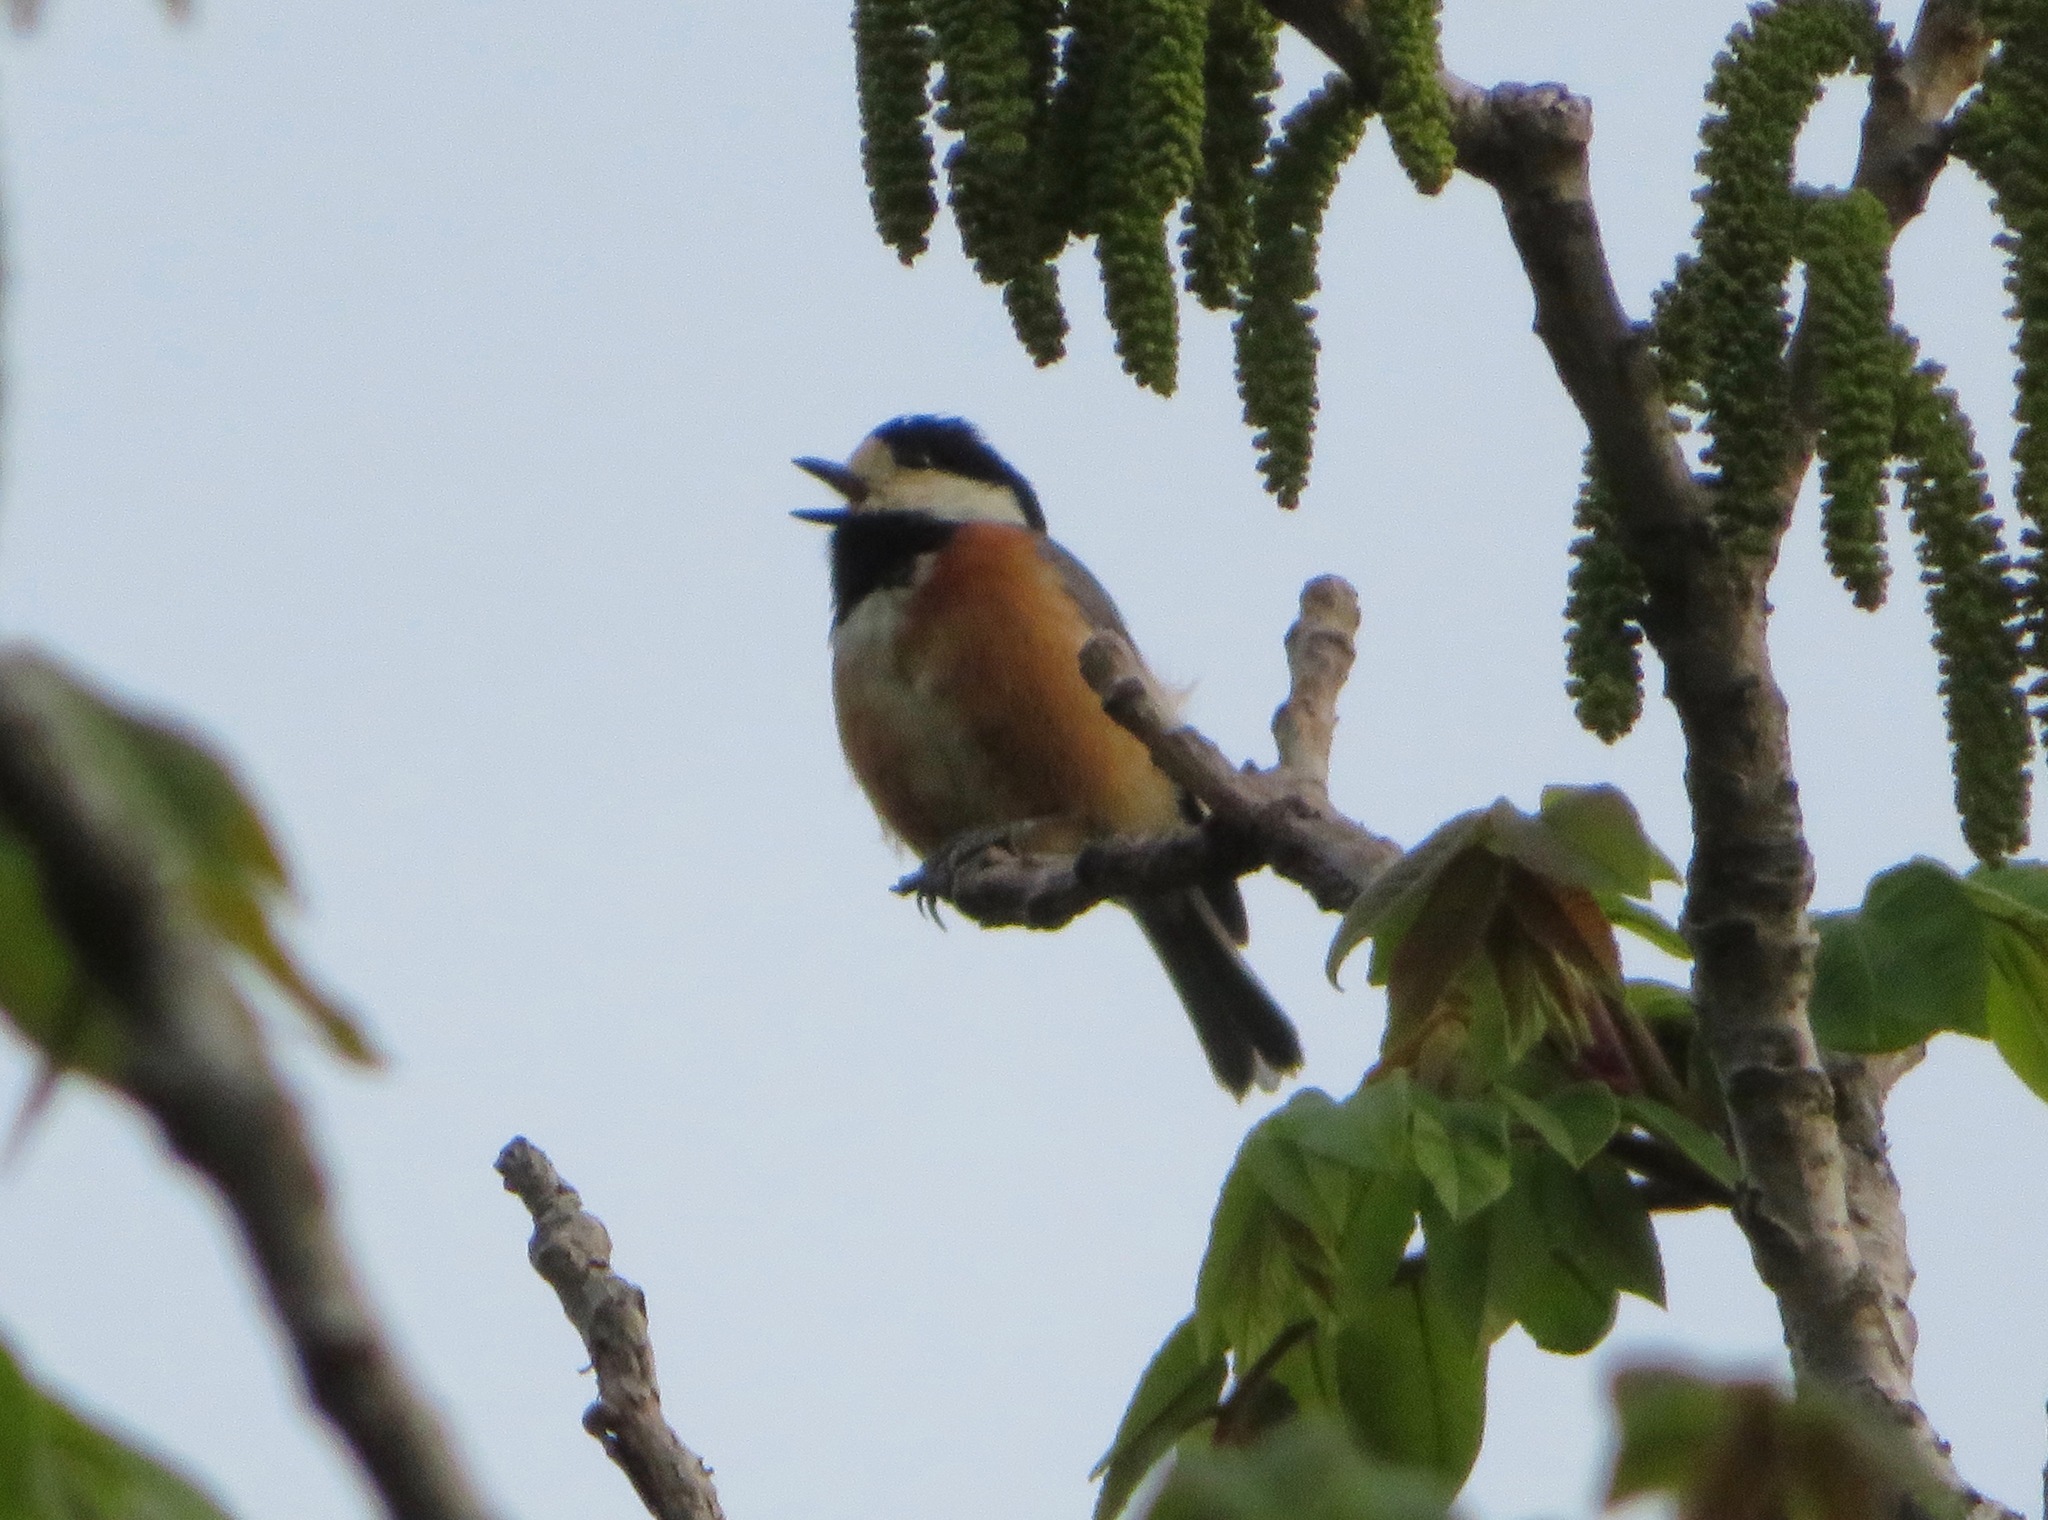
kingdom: Animalia
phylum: Chordata
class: Aves
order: Passeriformes
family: Paridae
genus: Poecile
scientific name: Poecile varius
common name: Varied tit
